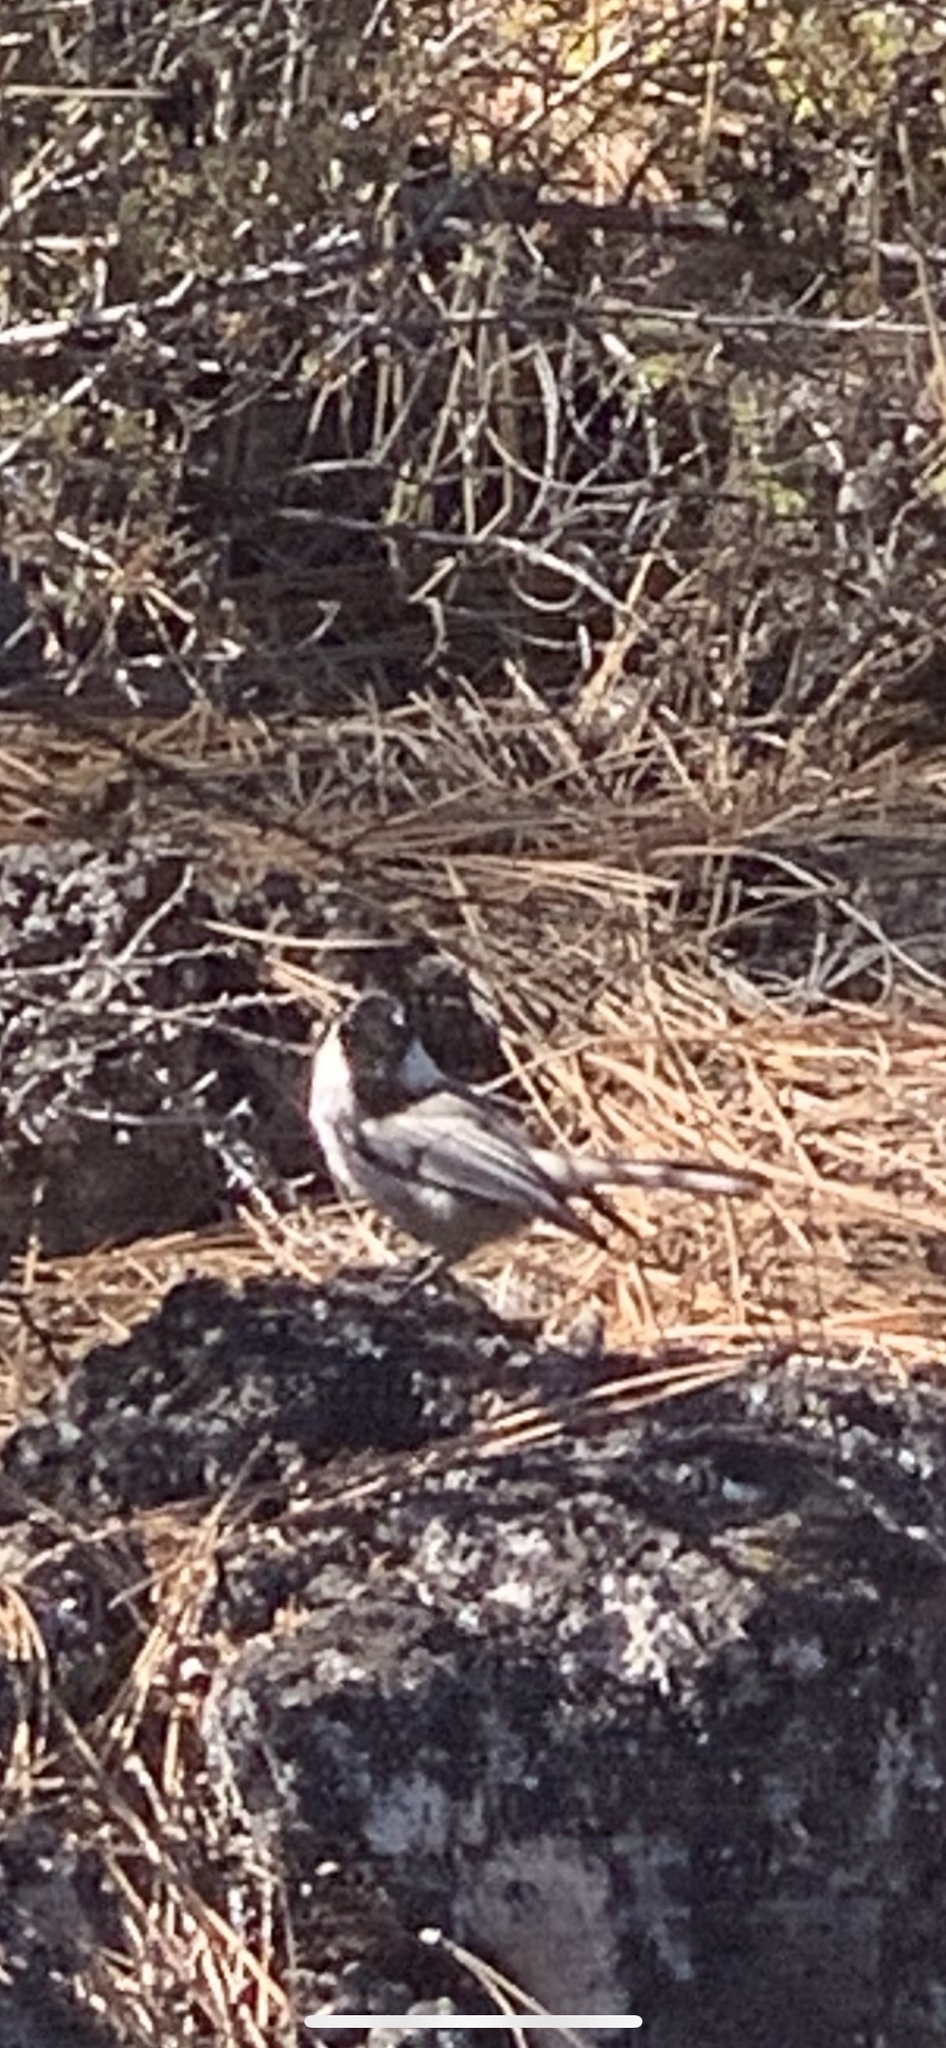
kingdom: Animalia
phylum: Chordata
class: Aves
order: Passeriformes
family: Paridae
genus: Poecile
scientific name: Poecile gambeli
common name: Mountain chickadee
